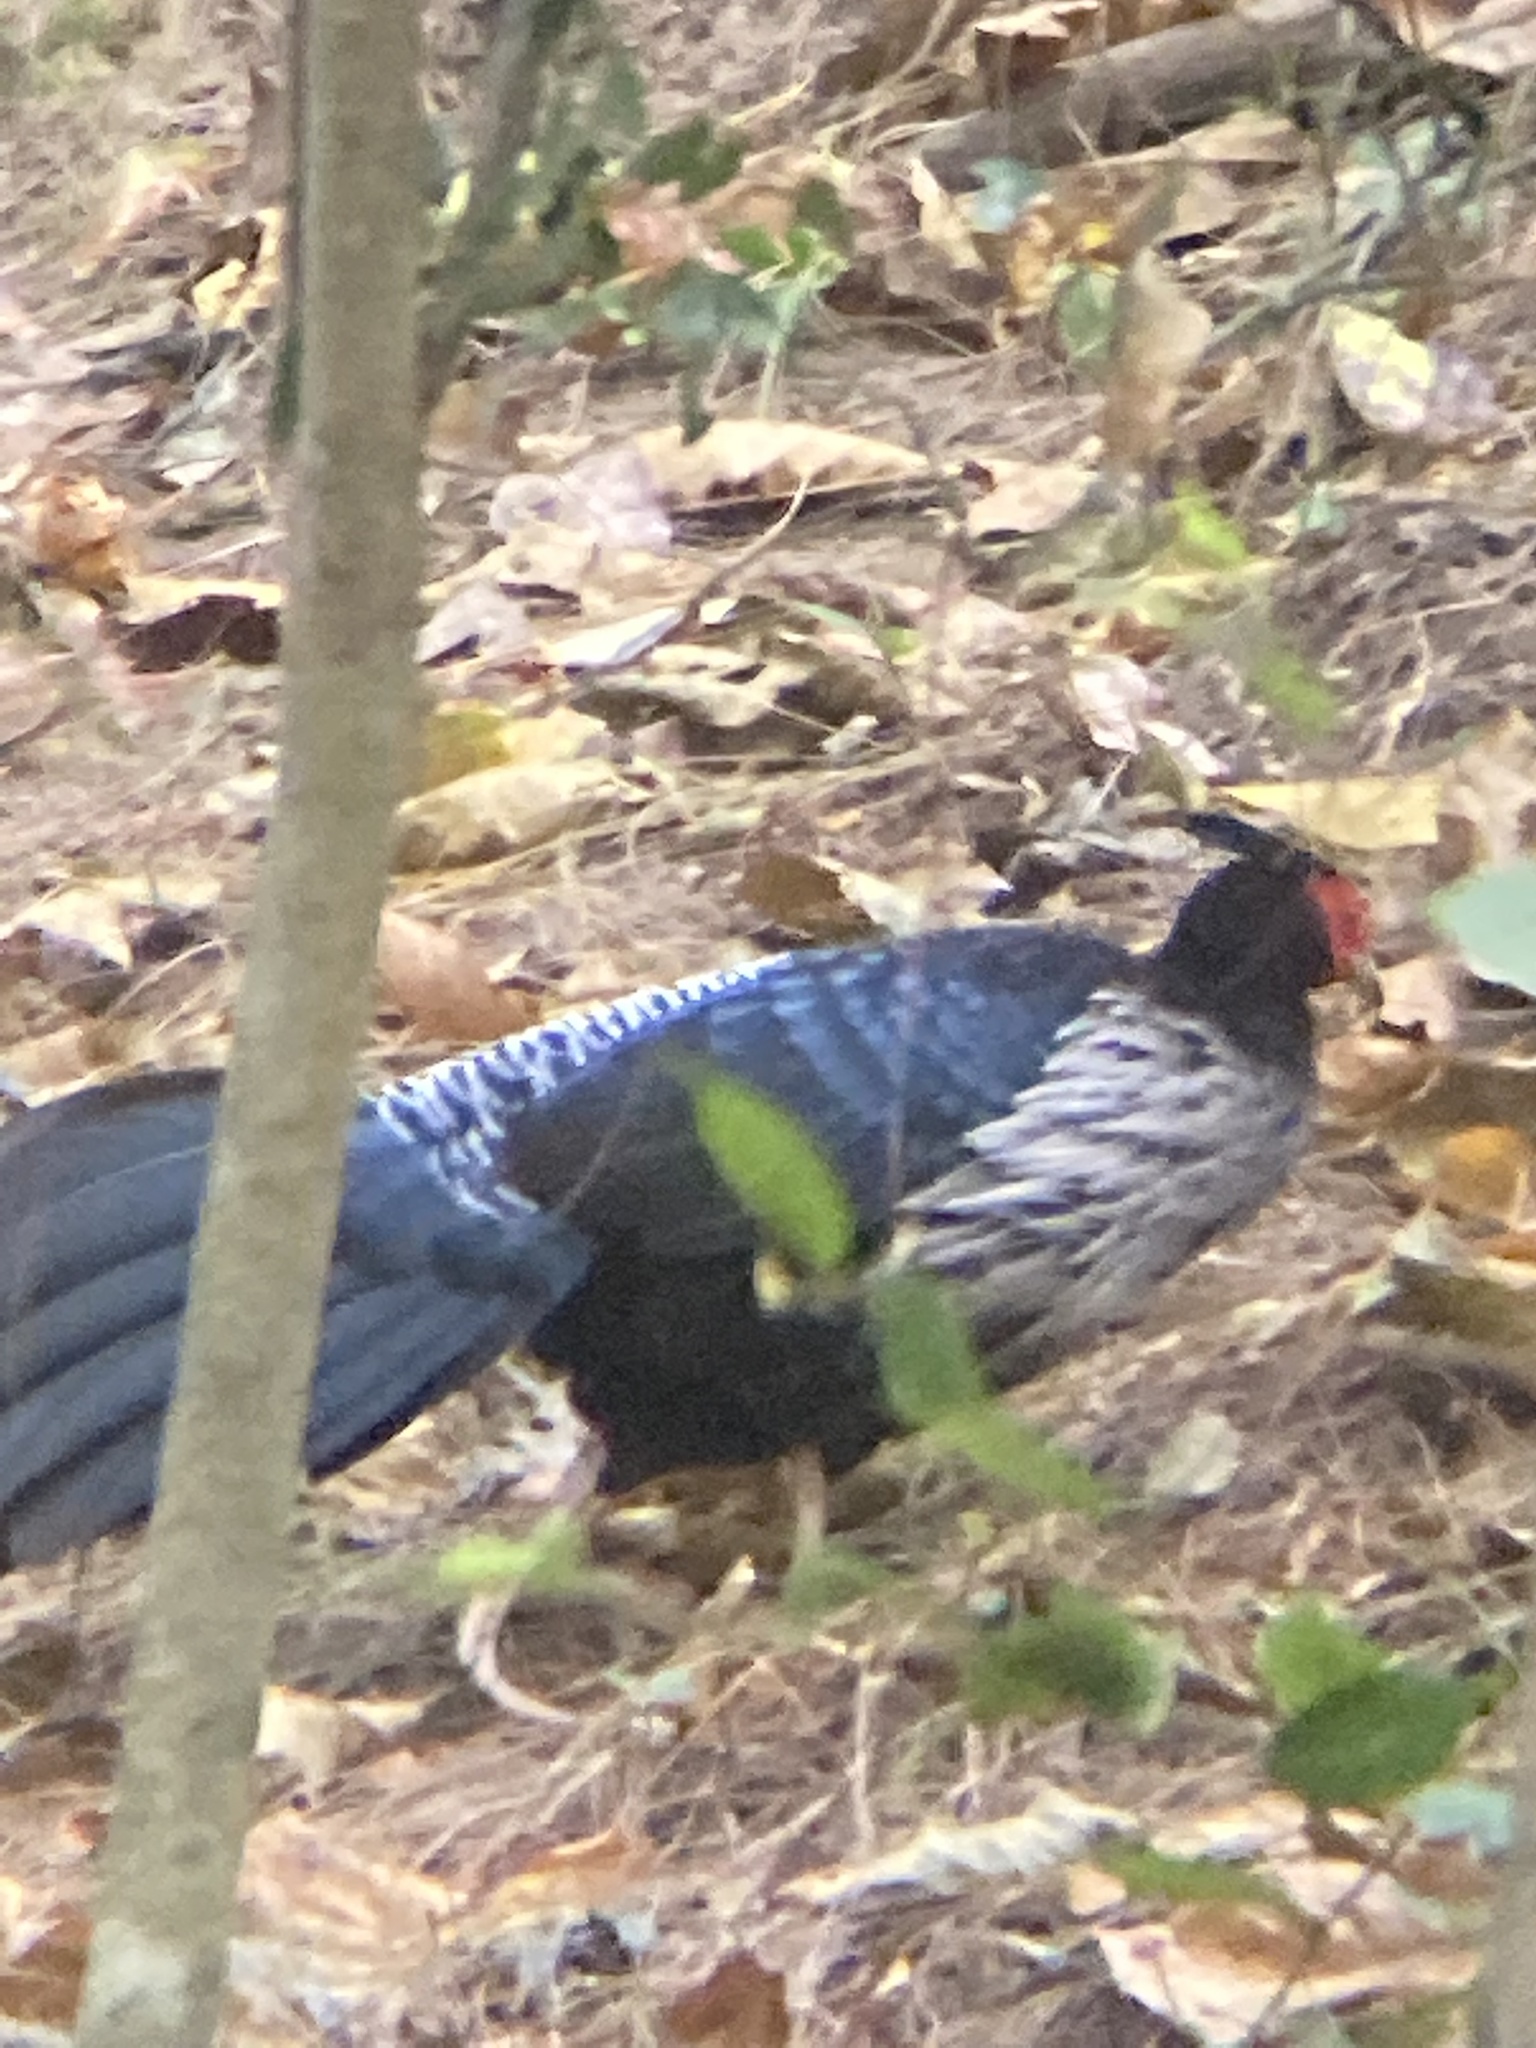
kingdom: Animalia
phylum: Chordata
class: Aves
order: Galliformes
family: Phasianidae
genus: Lophura
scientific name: Lophura leucomelanos
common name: Kalij pheasant
